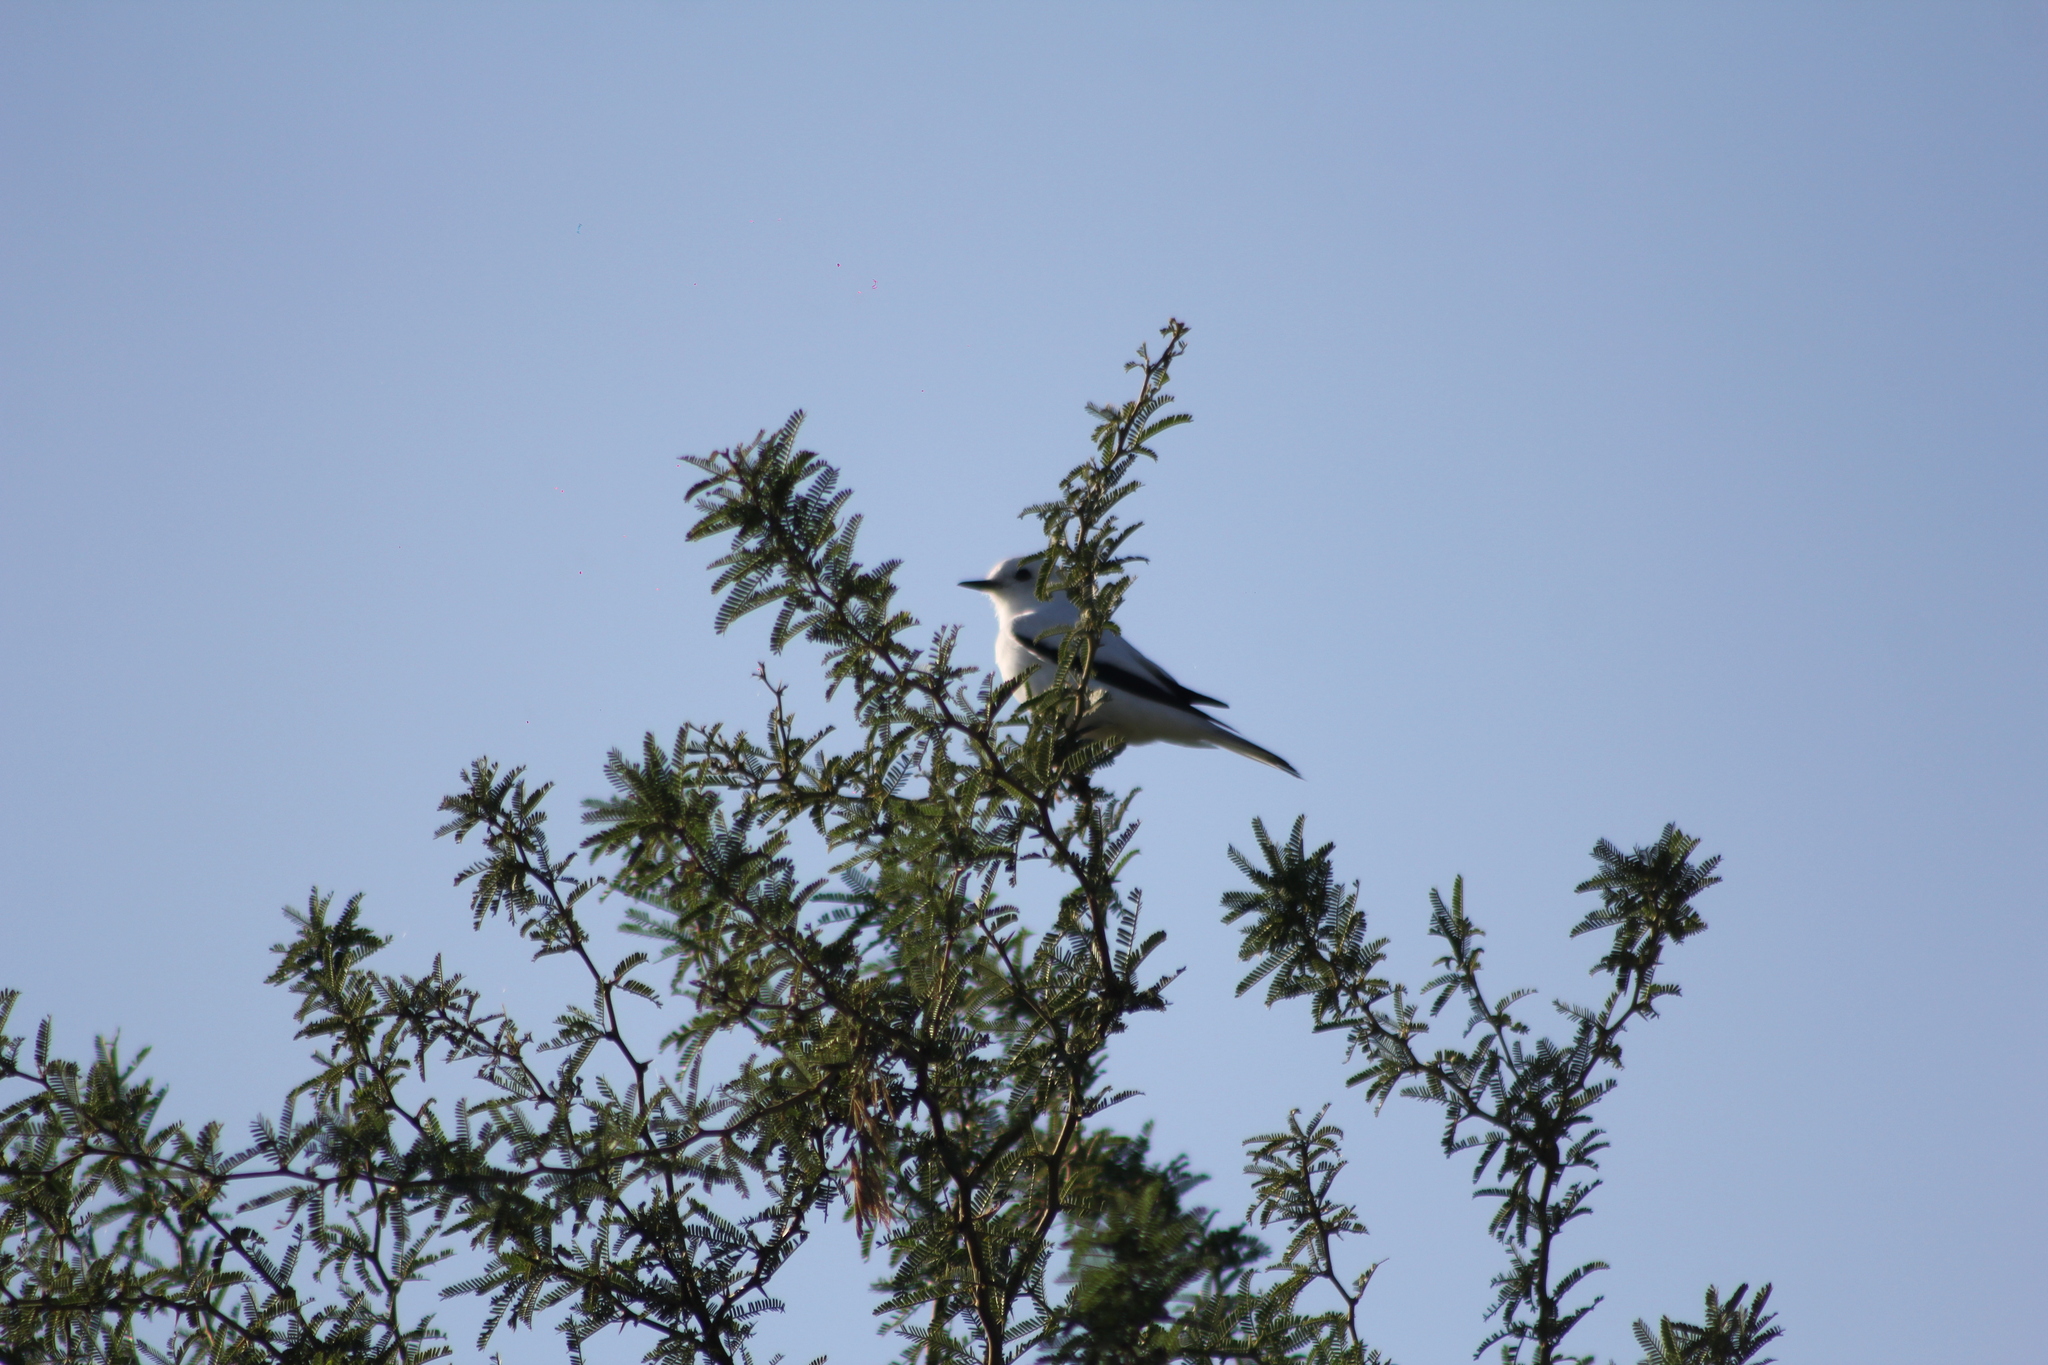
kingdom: Animalia
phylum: Chordata
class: Aves
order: Passeriformes
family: Tyrannidae
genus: Xolmis
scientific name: Xolmis irupero
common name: White monjita
